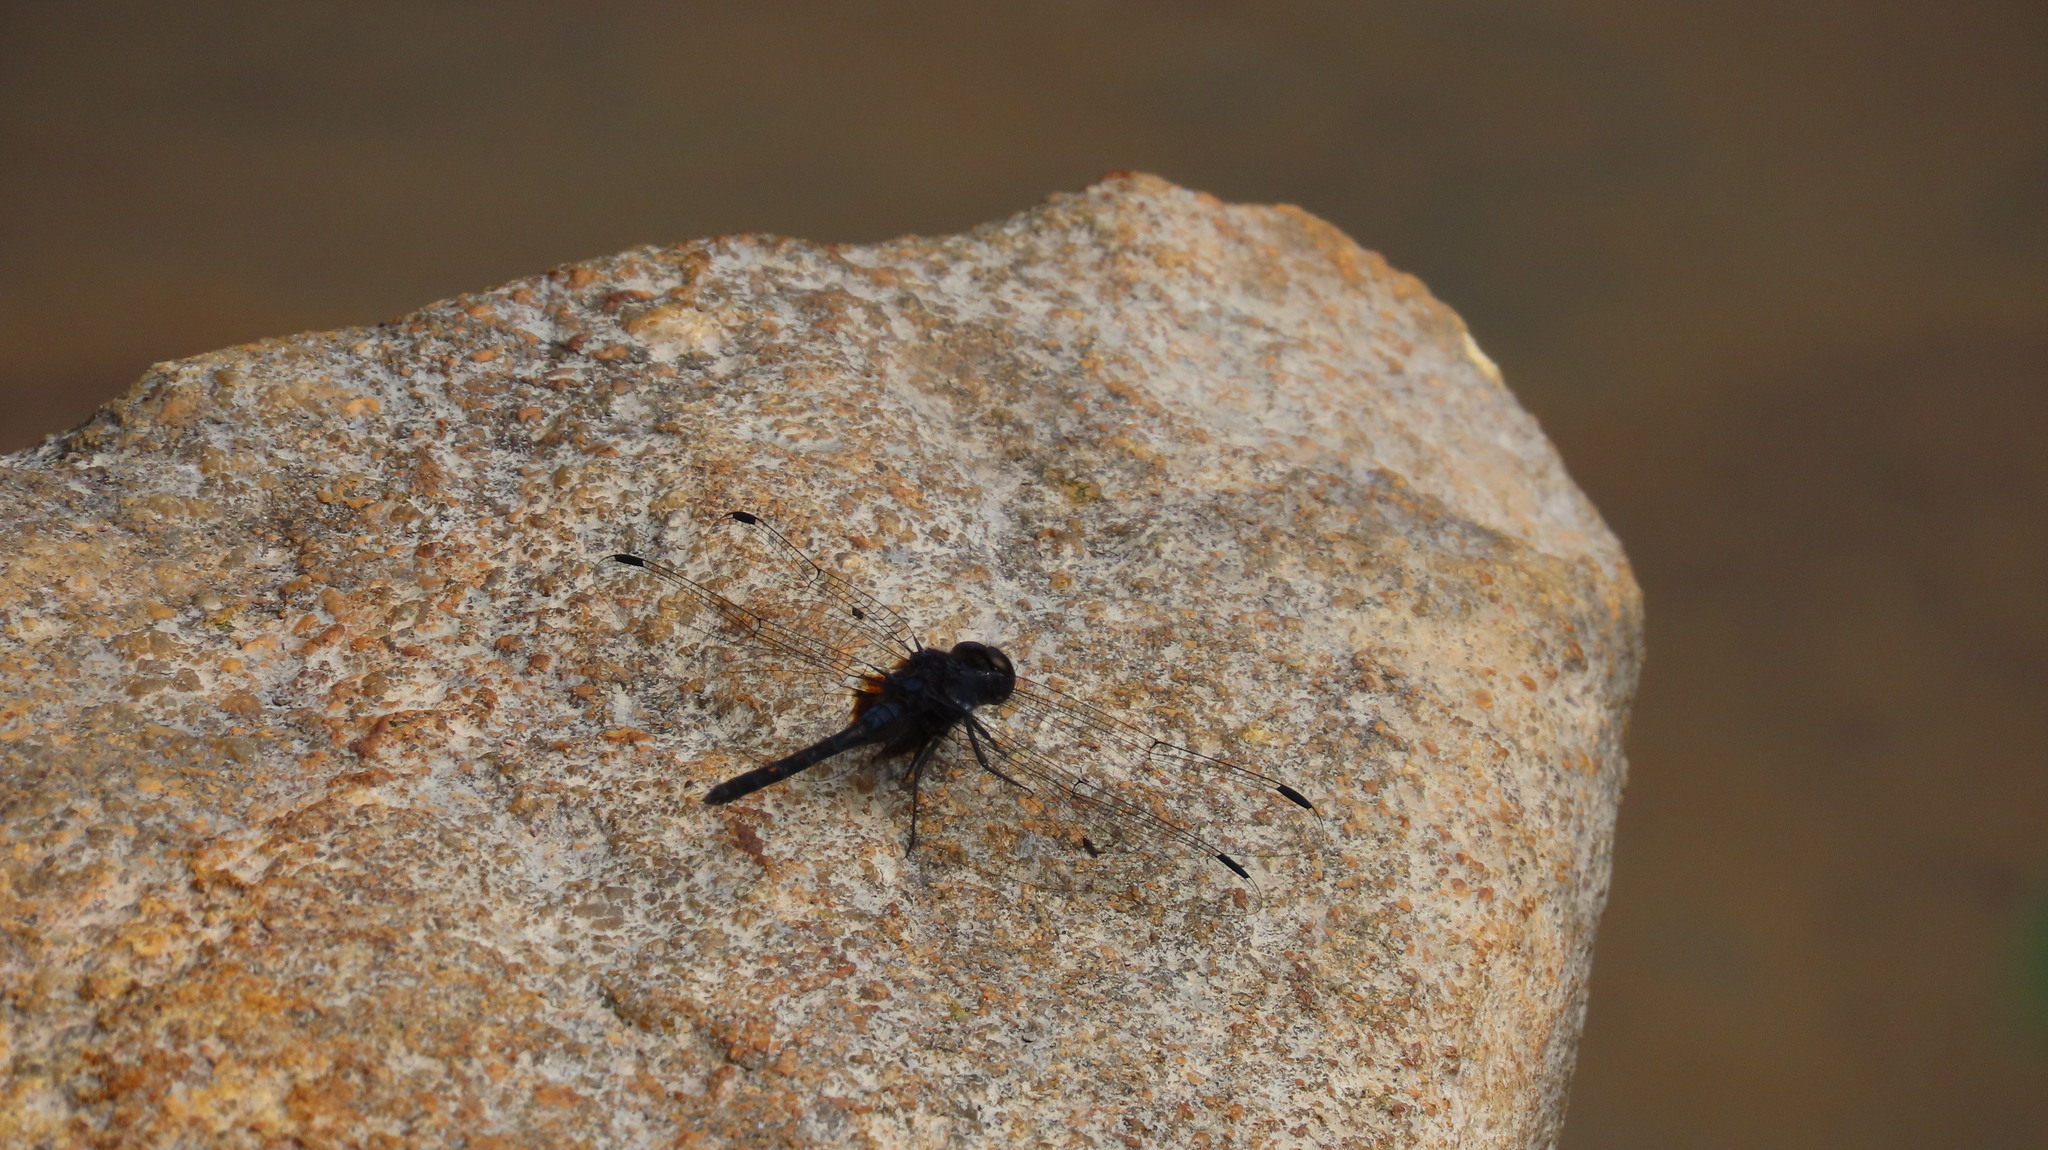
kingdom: Animalia
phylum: Arthropoda
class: Insecta
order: Odonata
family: Libellulidae
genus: Trithemis
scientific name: Trithemis festiva
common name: Indigo dropwing
